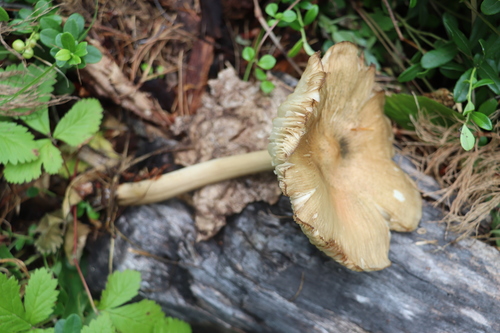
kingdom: Fungi
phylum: Basidiomycota
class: Agaricomycetes
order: Agaricales
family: Tricholomataceae
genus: Megacollybia
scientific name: Megacollybia platyphylla
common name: Whitelaced shank
